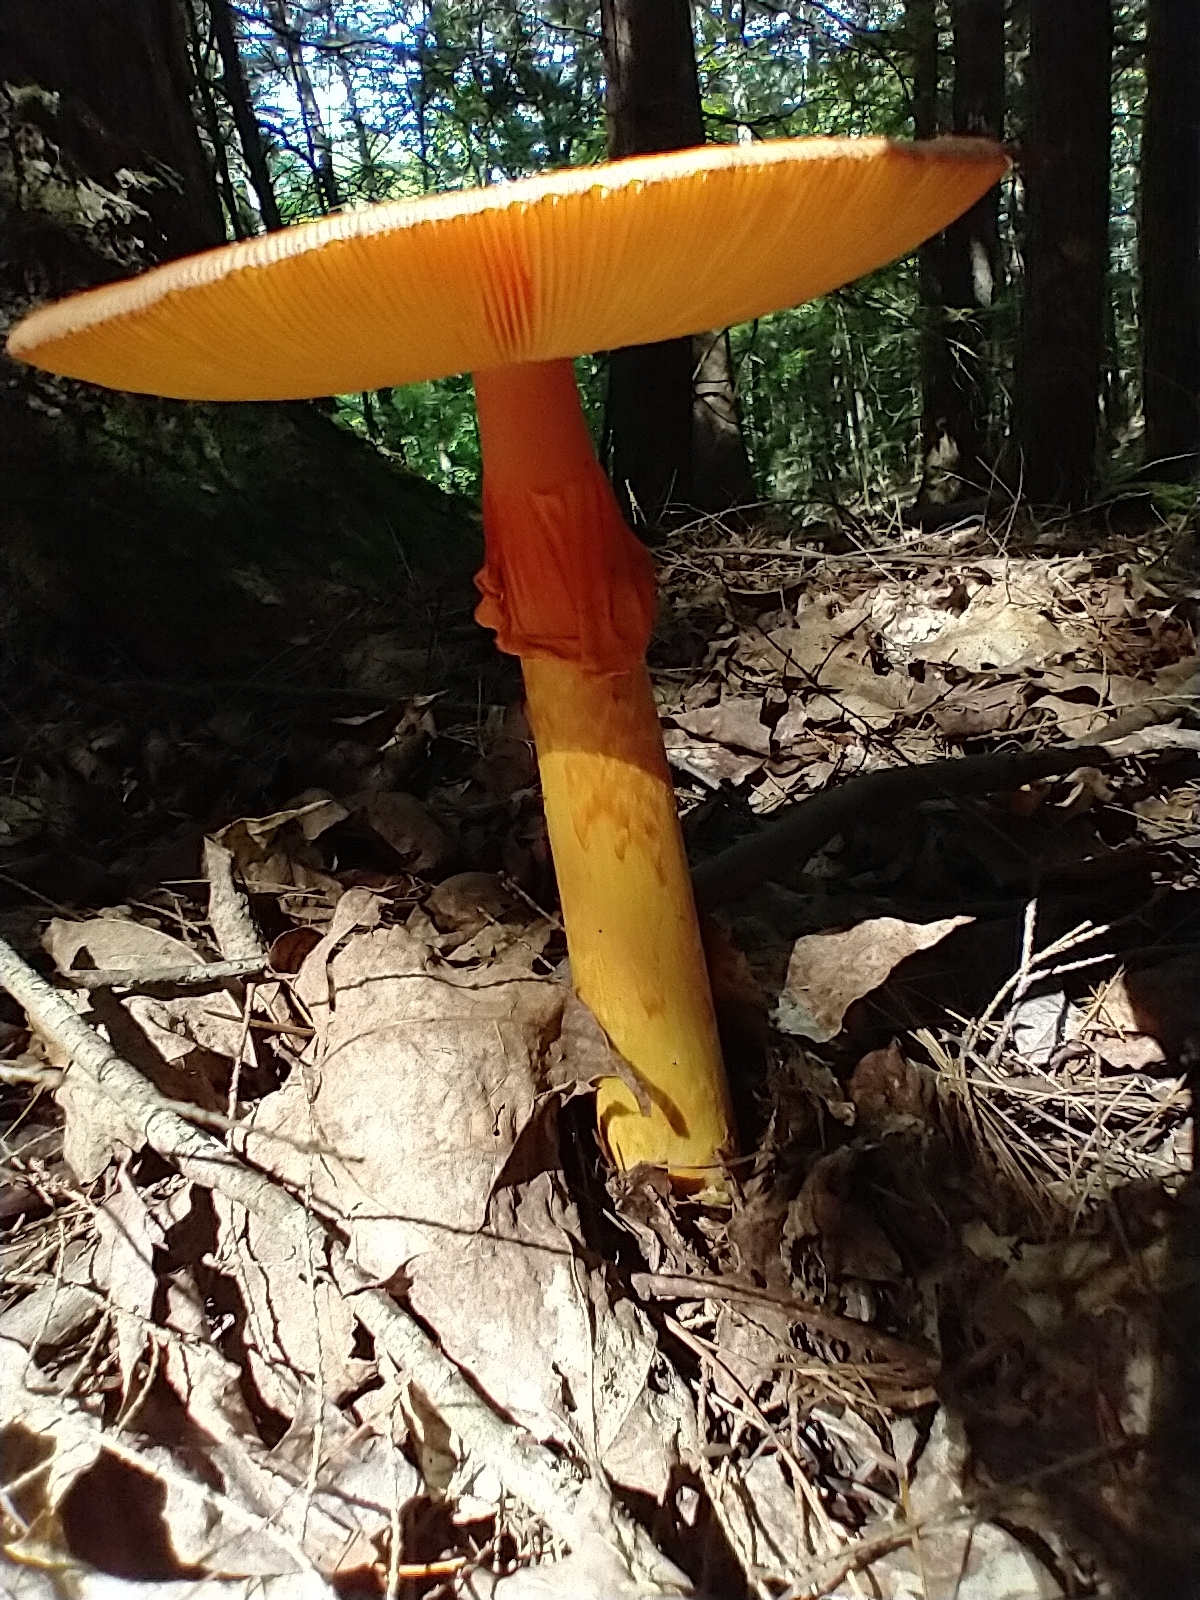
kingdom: Fungi
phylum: Basidiomycota
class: Agaricomycetes
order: Agaricales
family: Amanitaceae
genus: Amanita
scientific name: Amanita jacksonii
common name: Jackson's slender caesar
